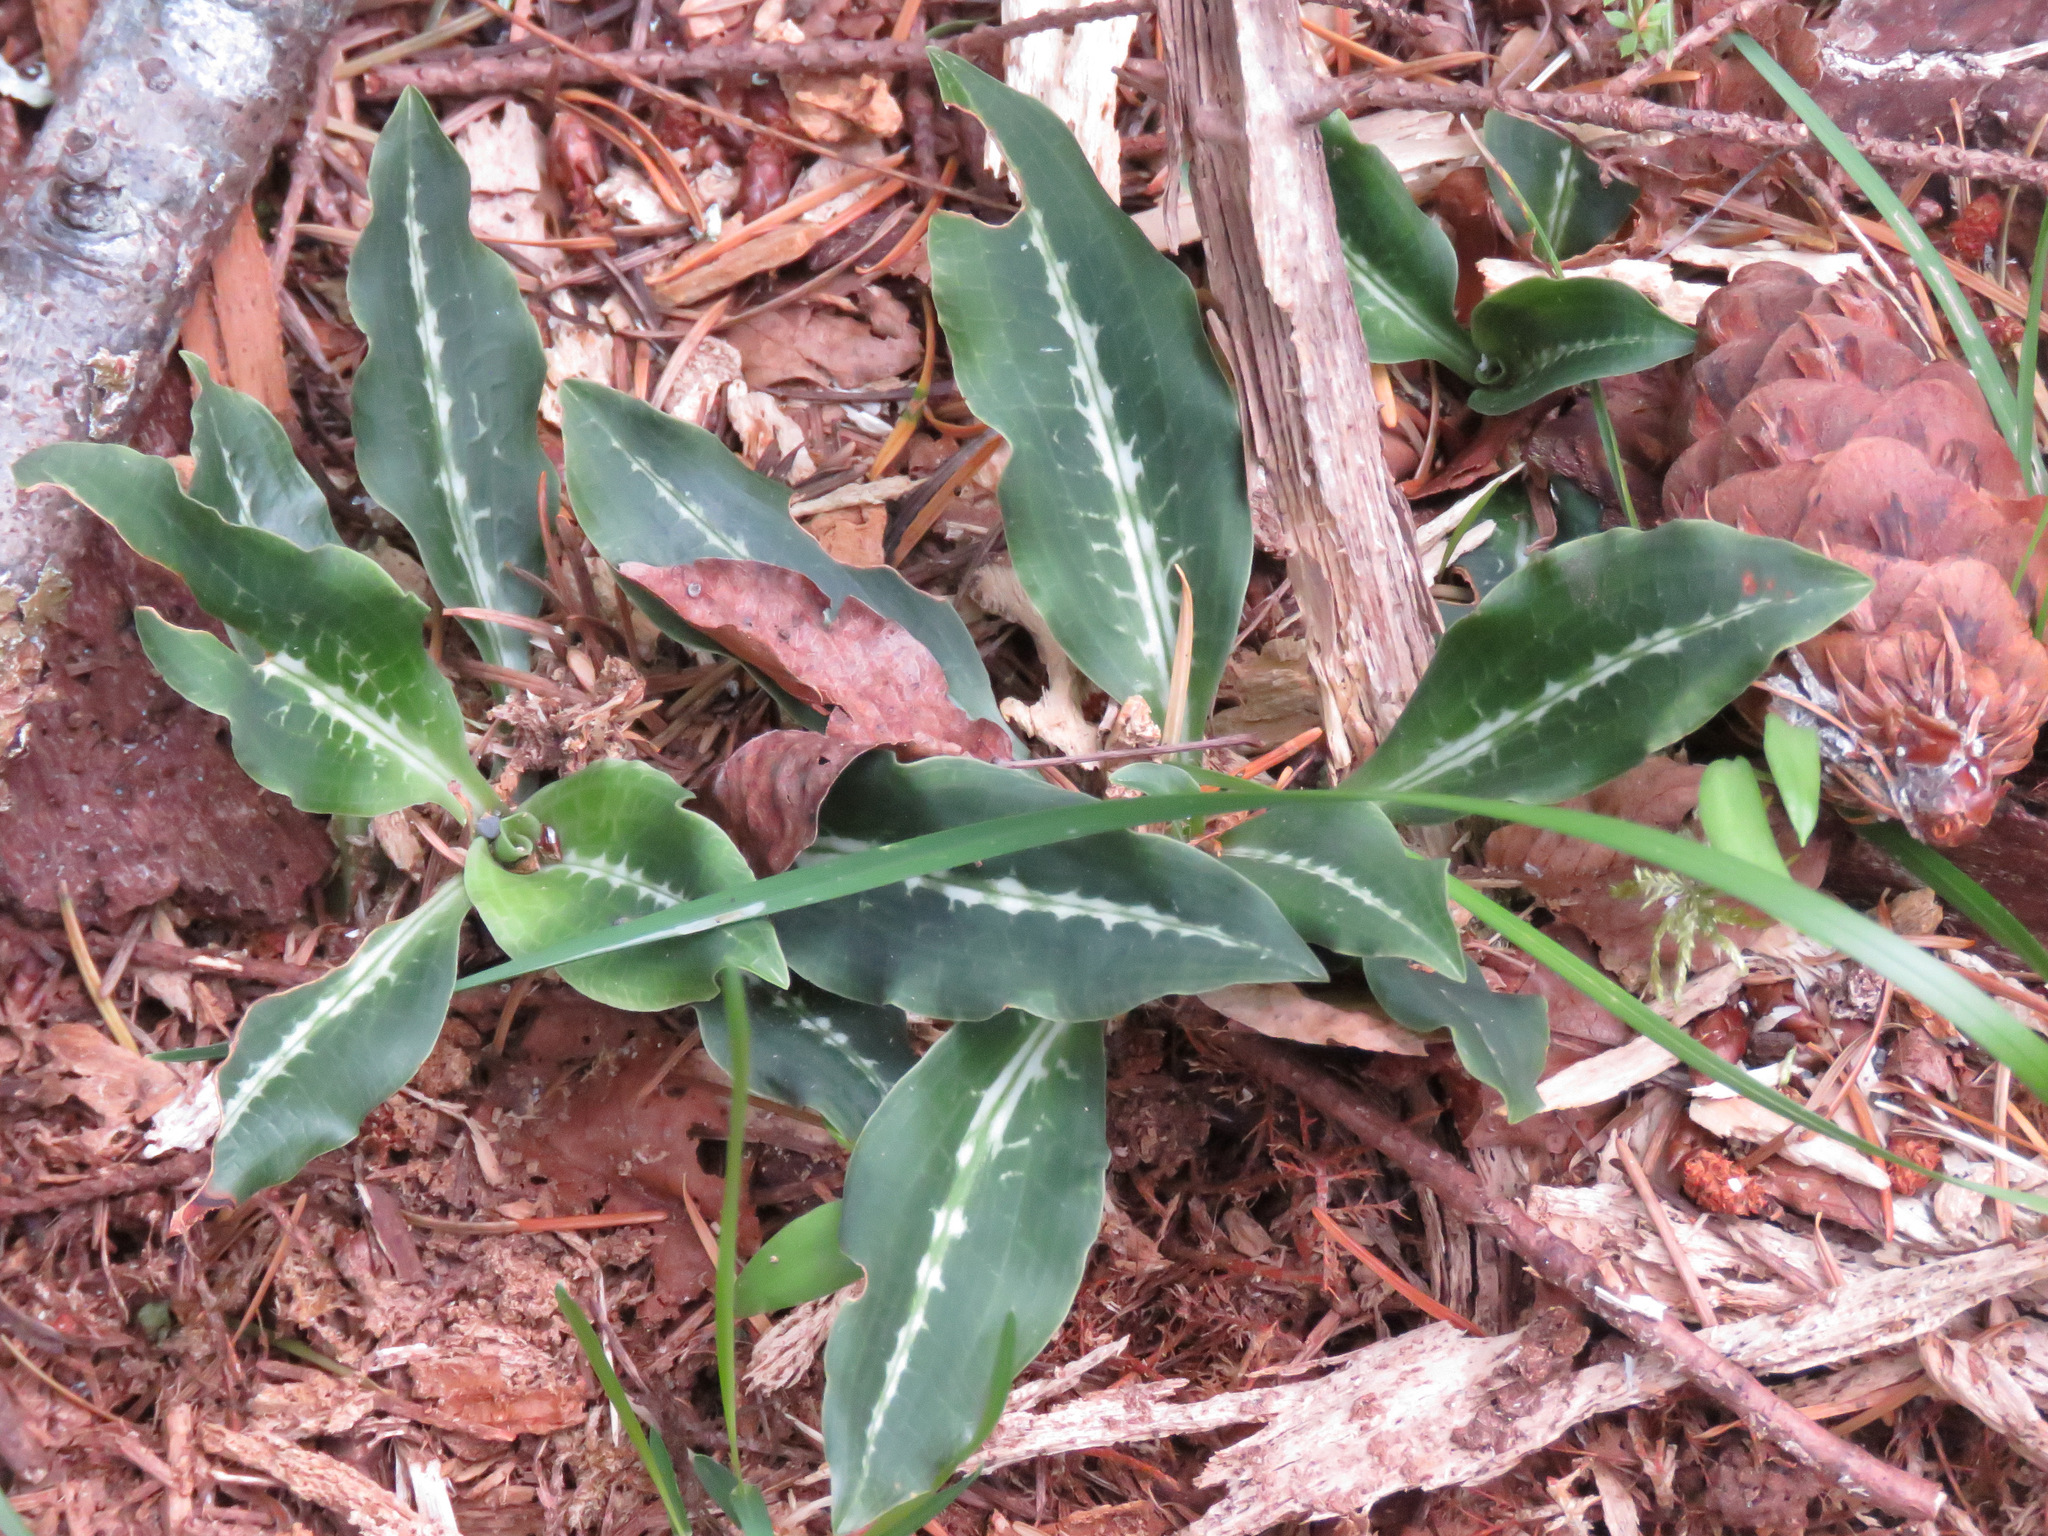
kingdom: Plantae
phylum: Tracheophyta
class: Liliopsida
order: Asparagales
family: Orchidaceae
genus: Goodyera
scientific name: Goodyera oblongifolia
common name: Giant rattlesnake-plantain
